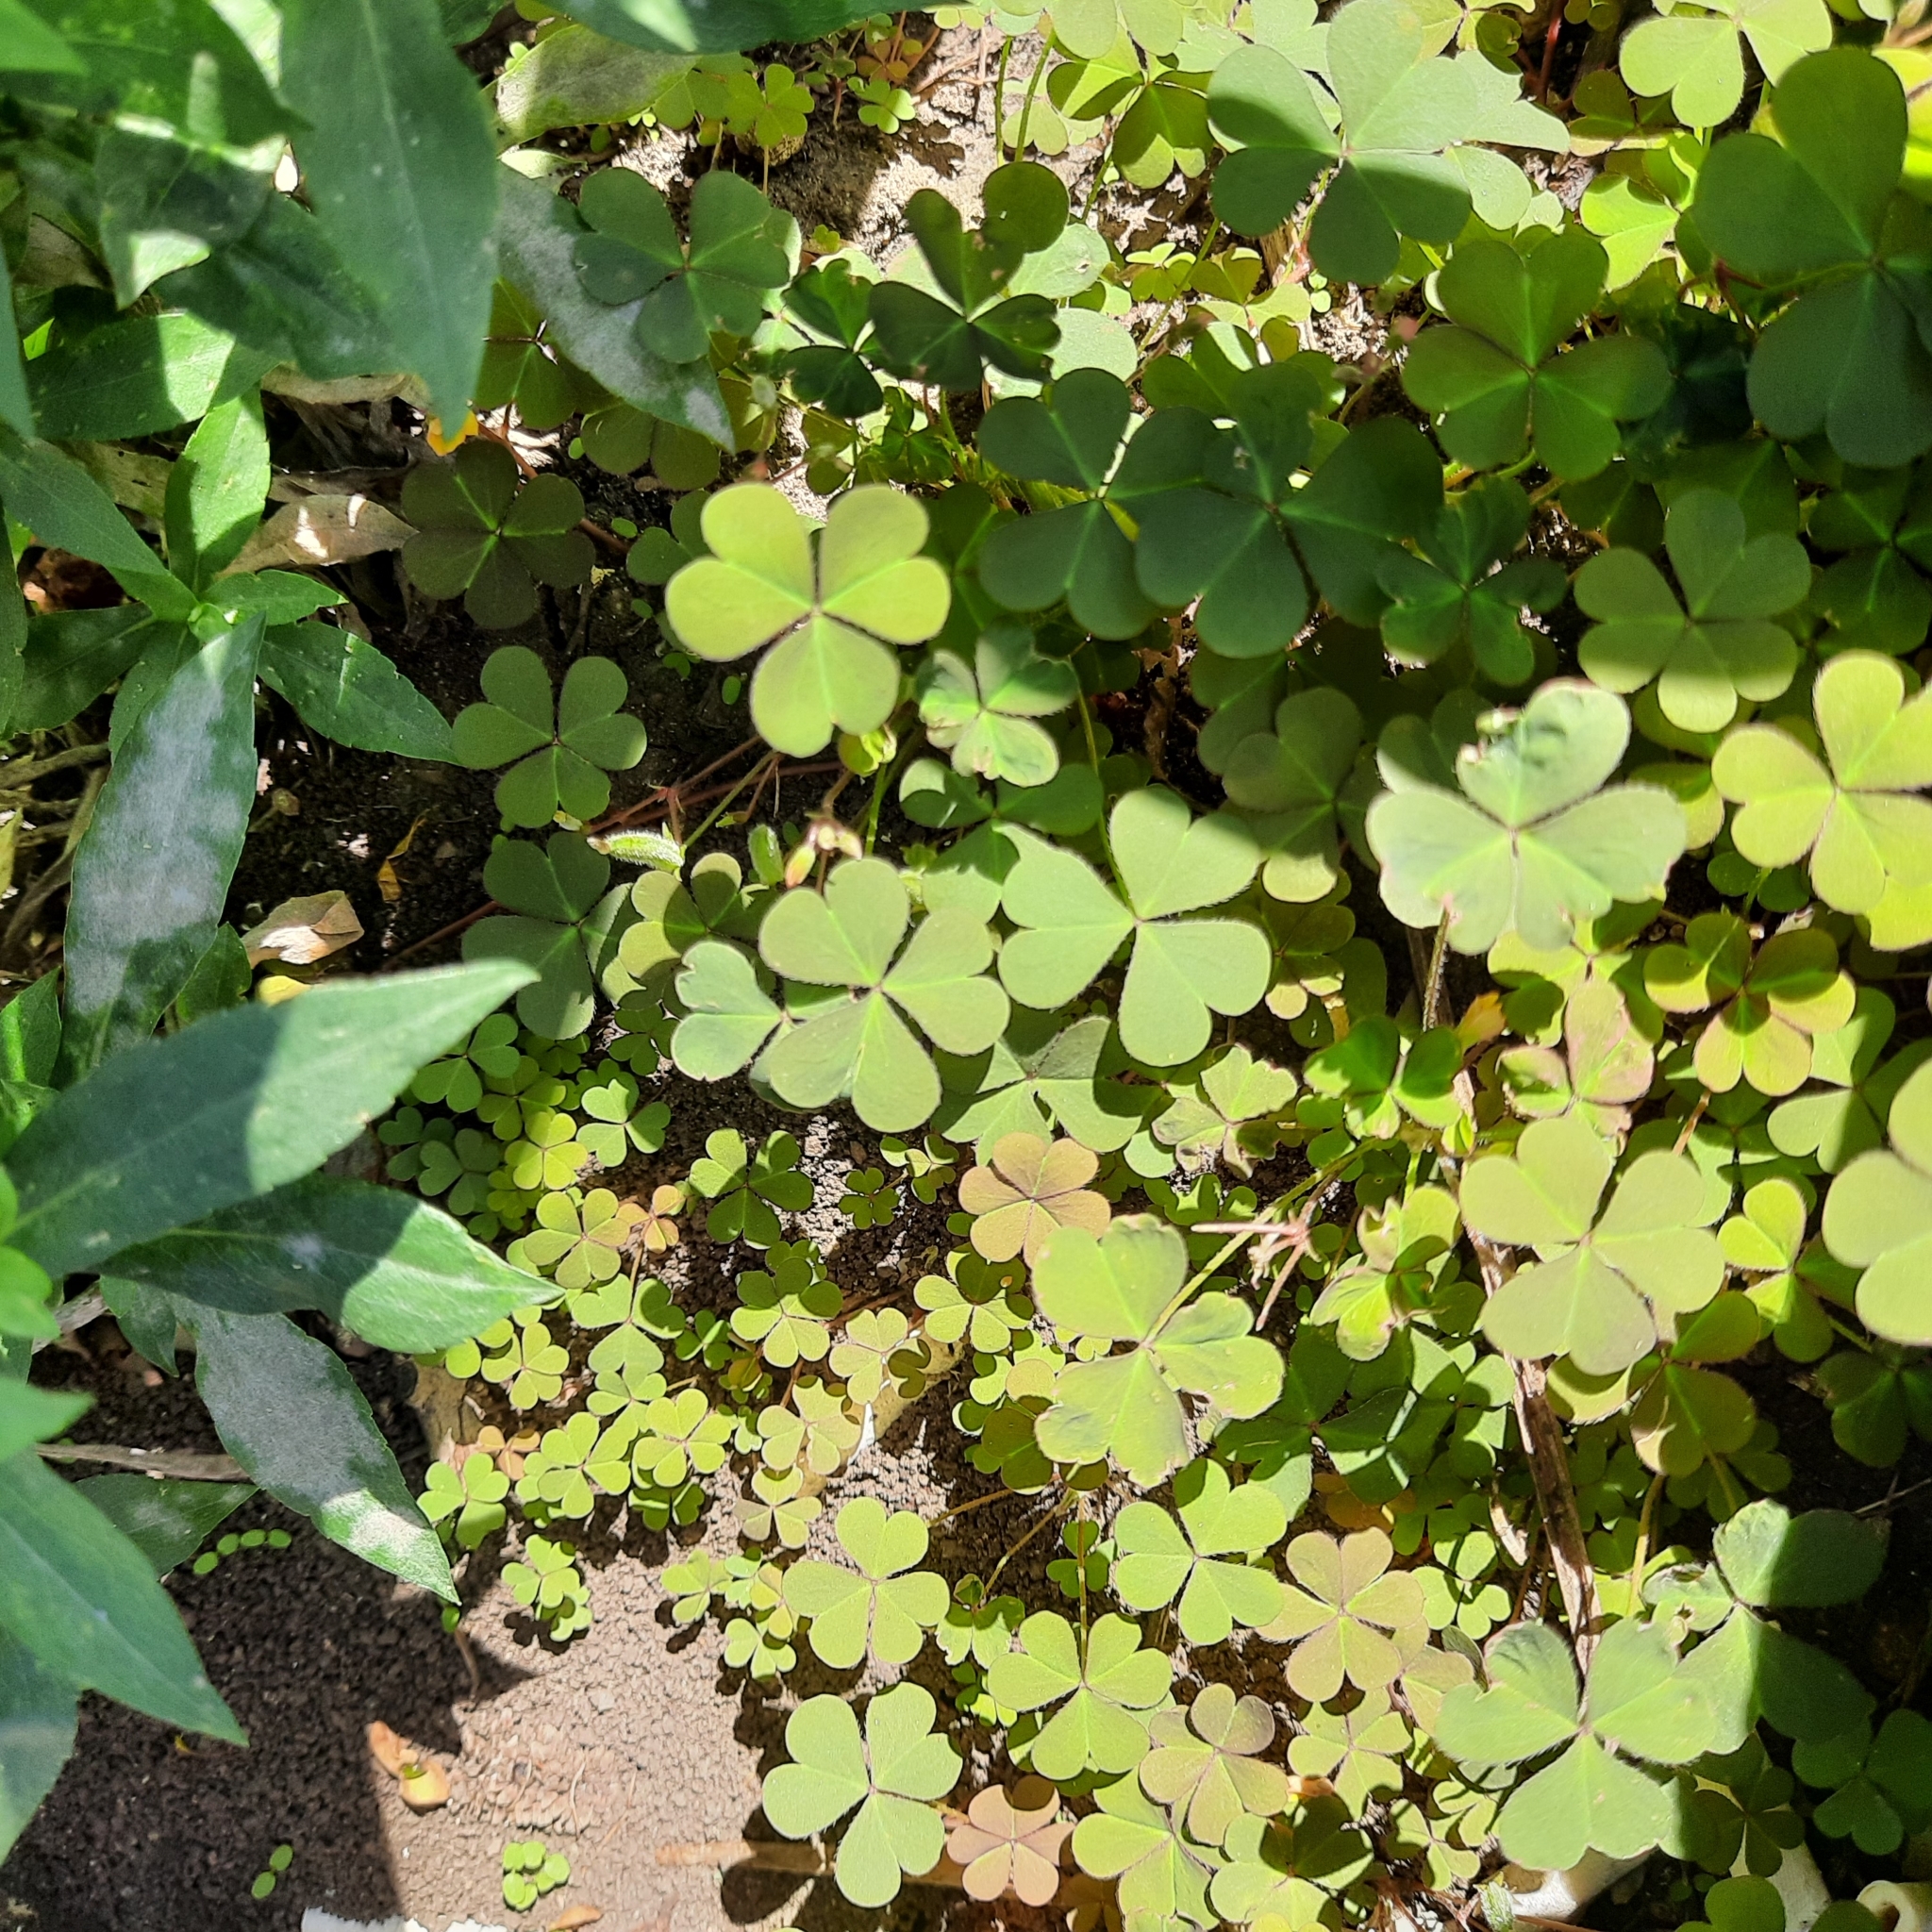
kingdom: Plantae
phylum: Tracheophyta
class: Magnoliopsida
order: Oxalidales
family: Oxalidaceae
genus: Oxalis
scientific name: Oxalis corniculata
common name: Procumbent yellow-sorrel
